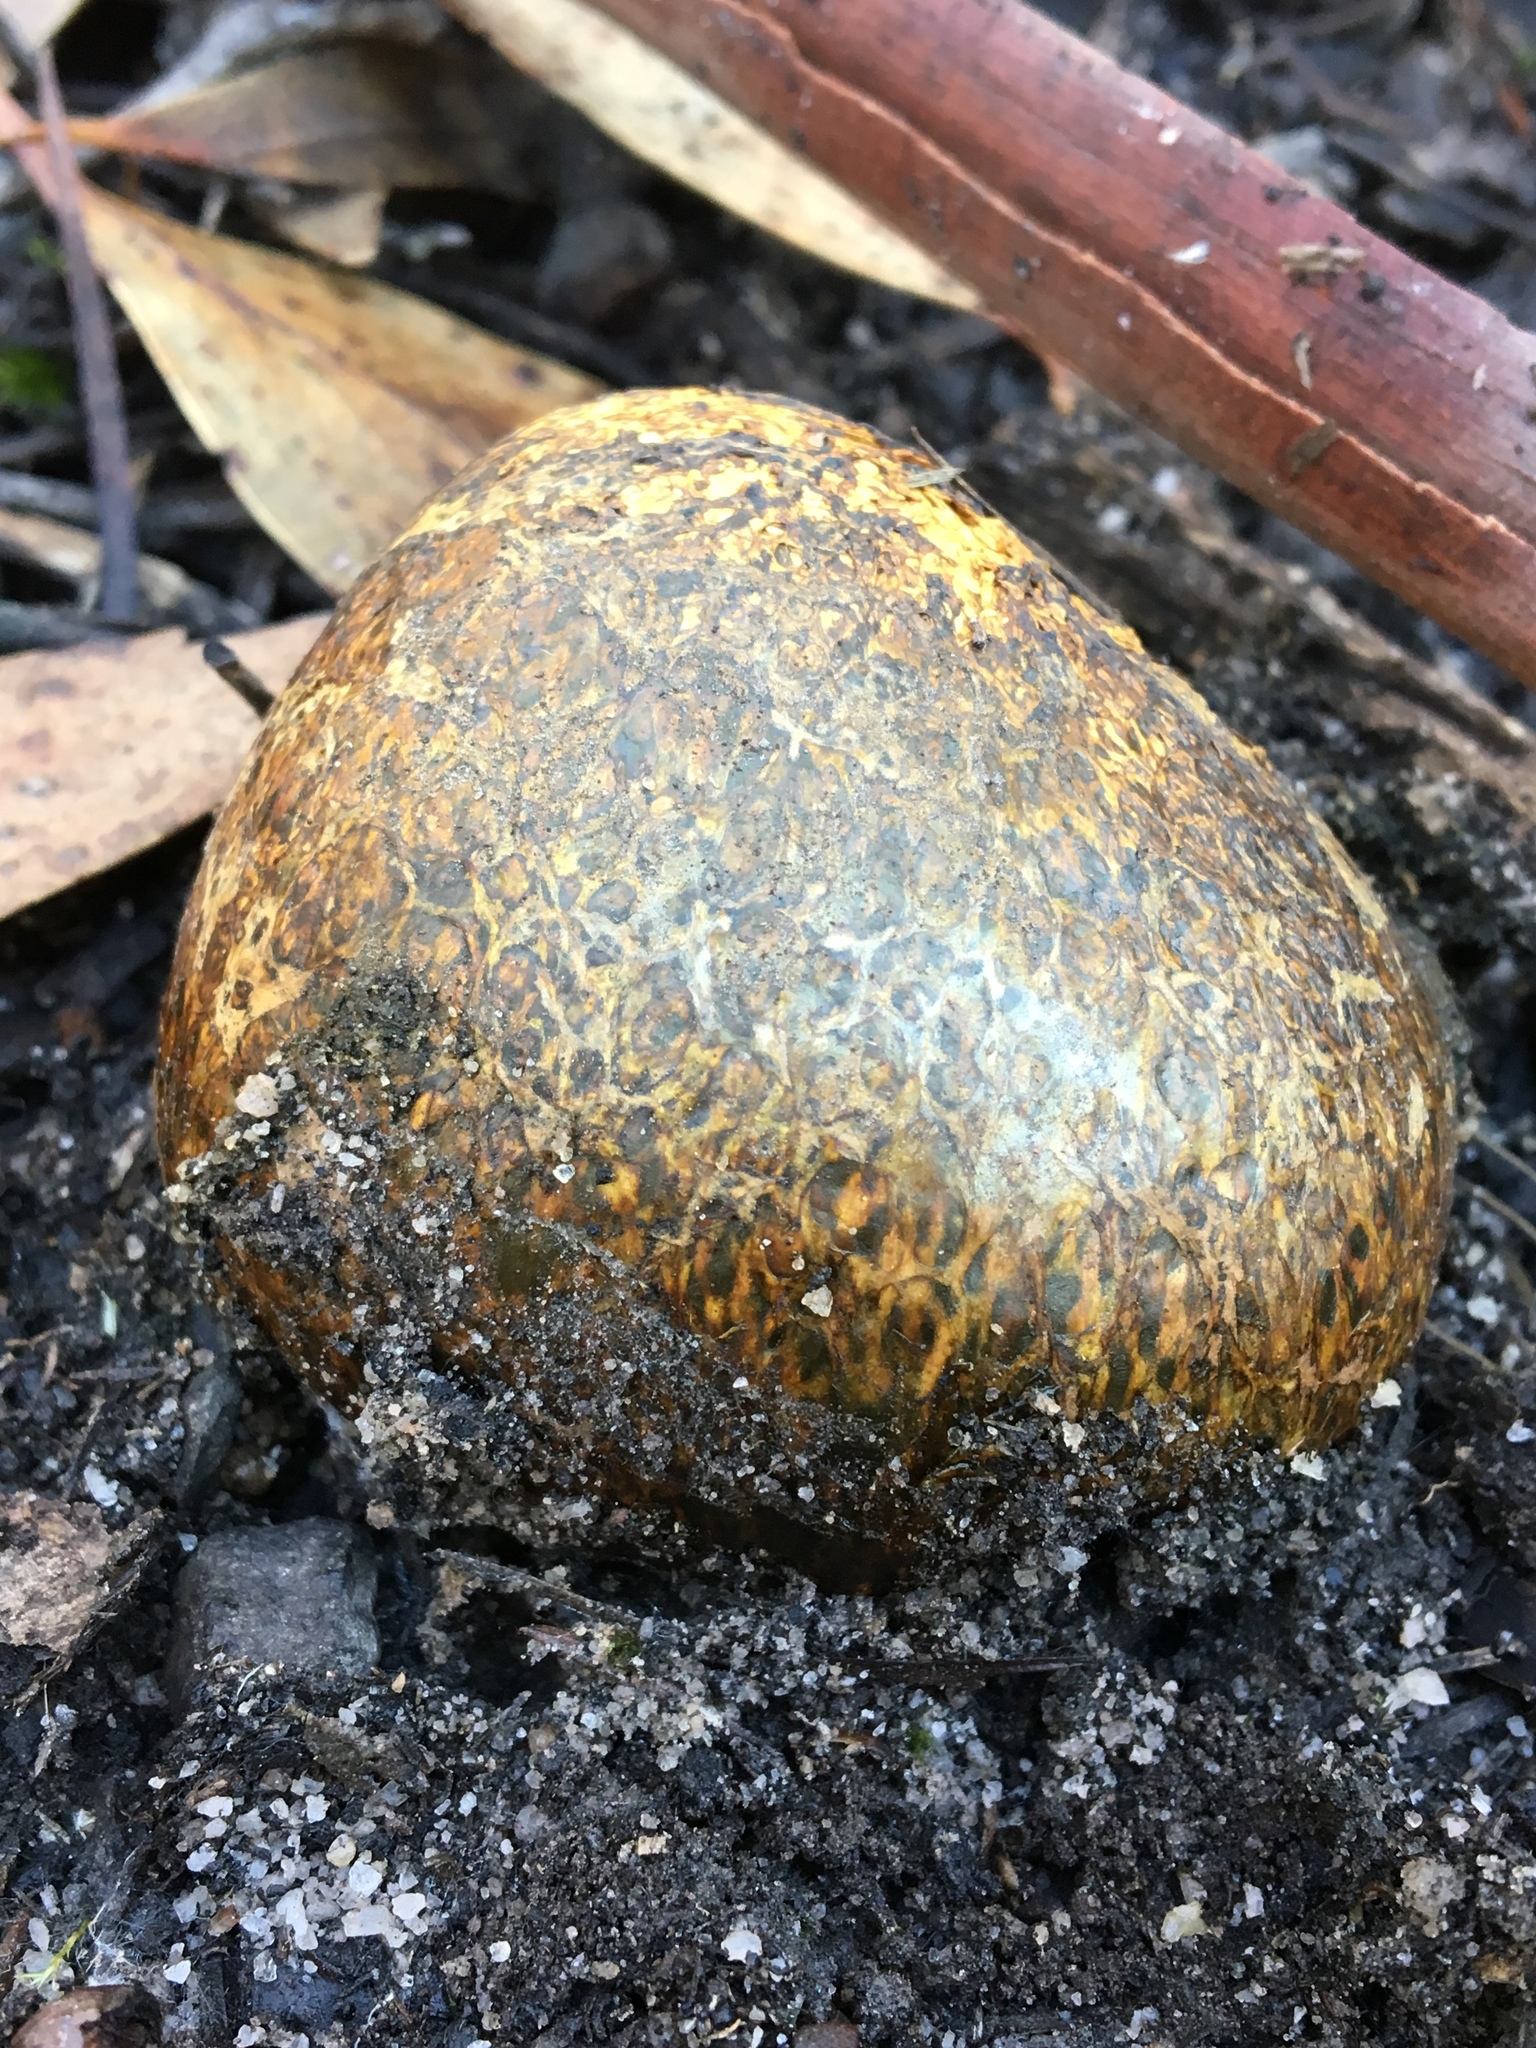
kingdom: Fungi
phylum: Basidiomycota
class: Agaricomycetes
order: Boletales
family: Sclerodermataceae
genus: Pisolithus
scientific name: Pisolithus arhizus
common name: Dyeball
